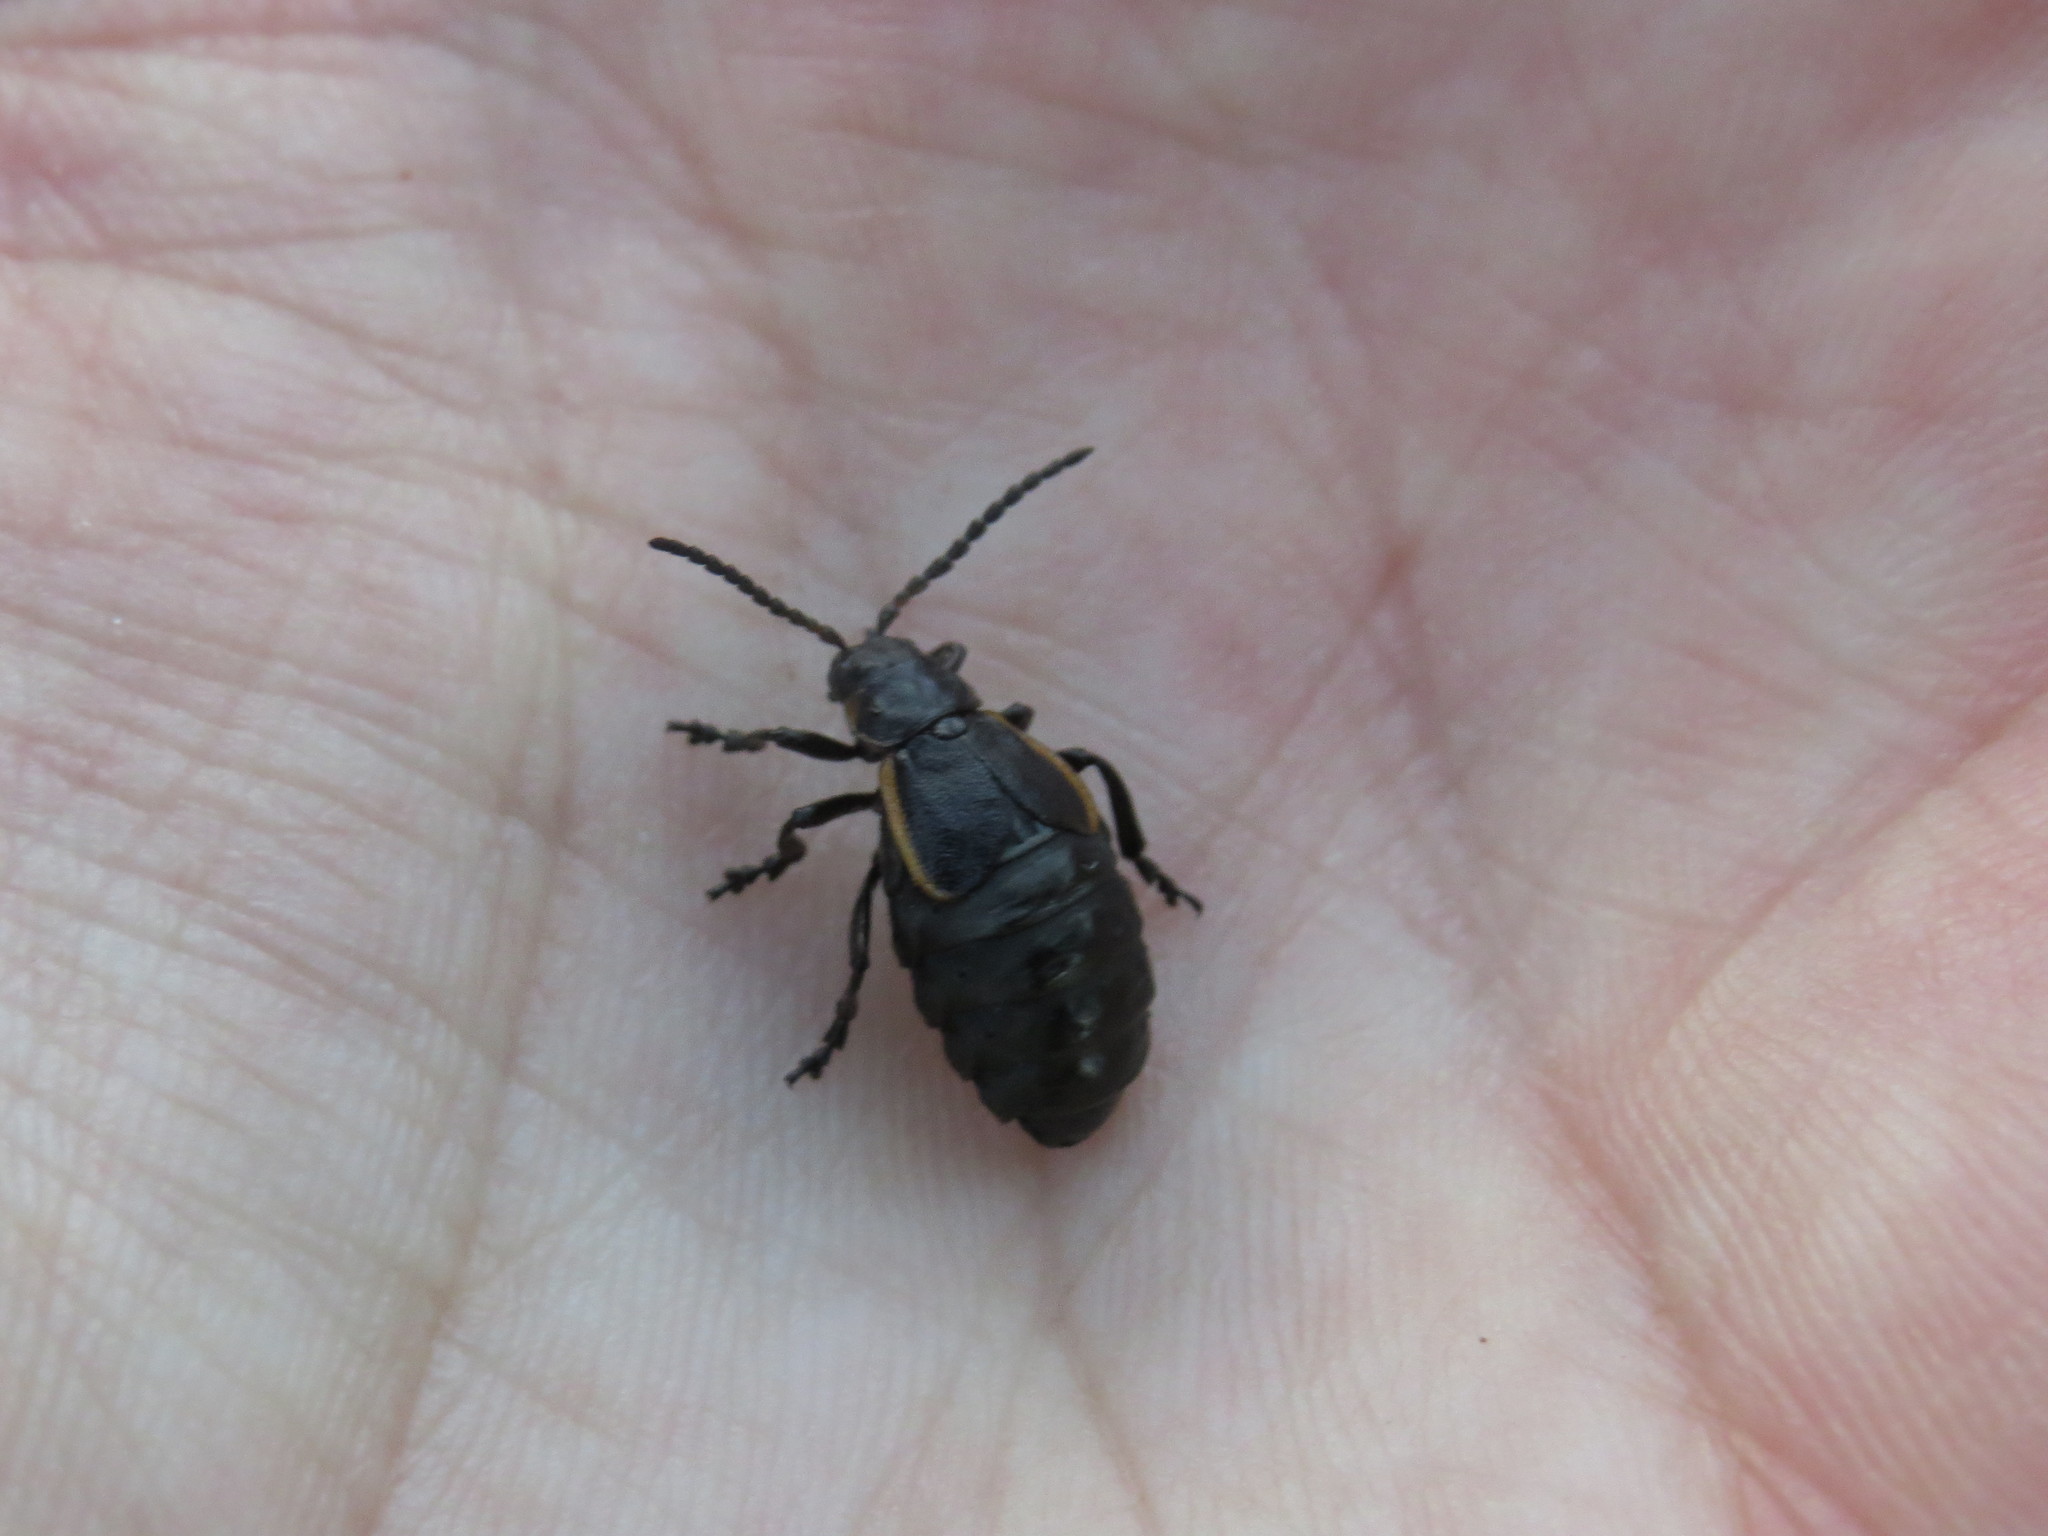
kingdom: Animalia
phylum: Arthropoda
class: Insecta
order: Coleoptera
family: Chrysomelidae
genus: Arima
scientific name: Arima marginata
